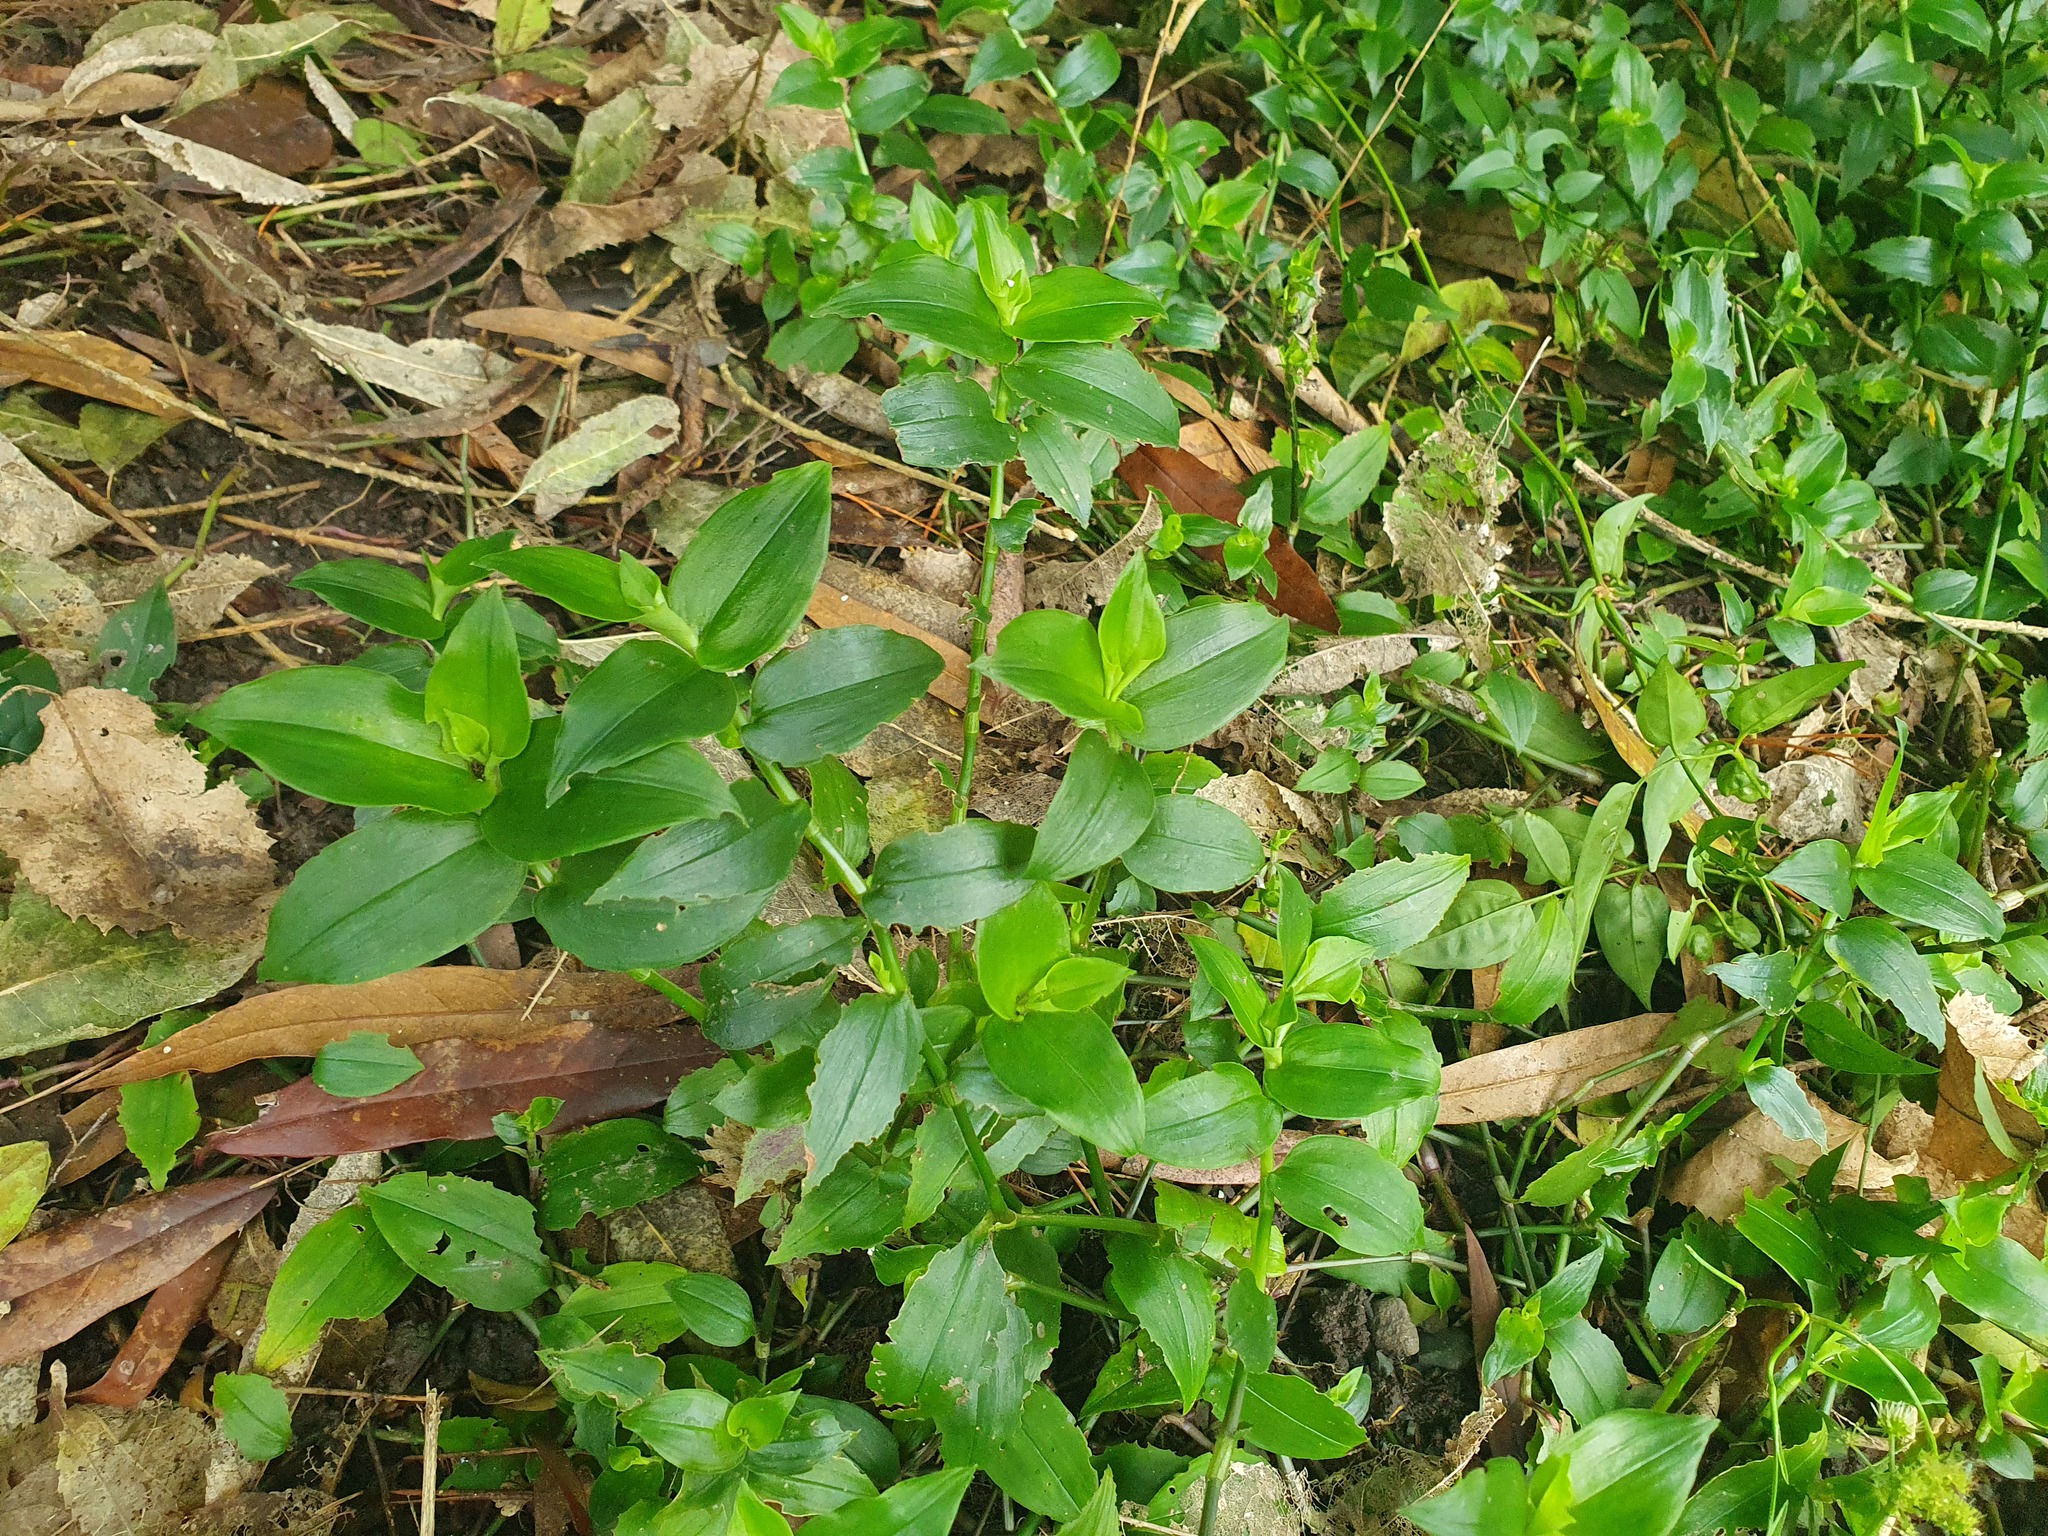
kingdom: Plantae
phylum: Tracheophyta
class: Liliopsida
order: Commelinales
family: Commelinaceae
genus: Tradescantia
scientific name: Tradescantia fluminensis
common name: Wandering-jew
